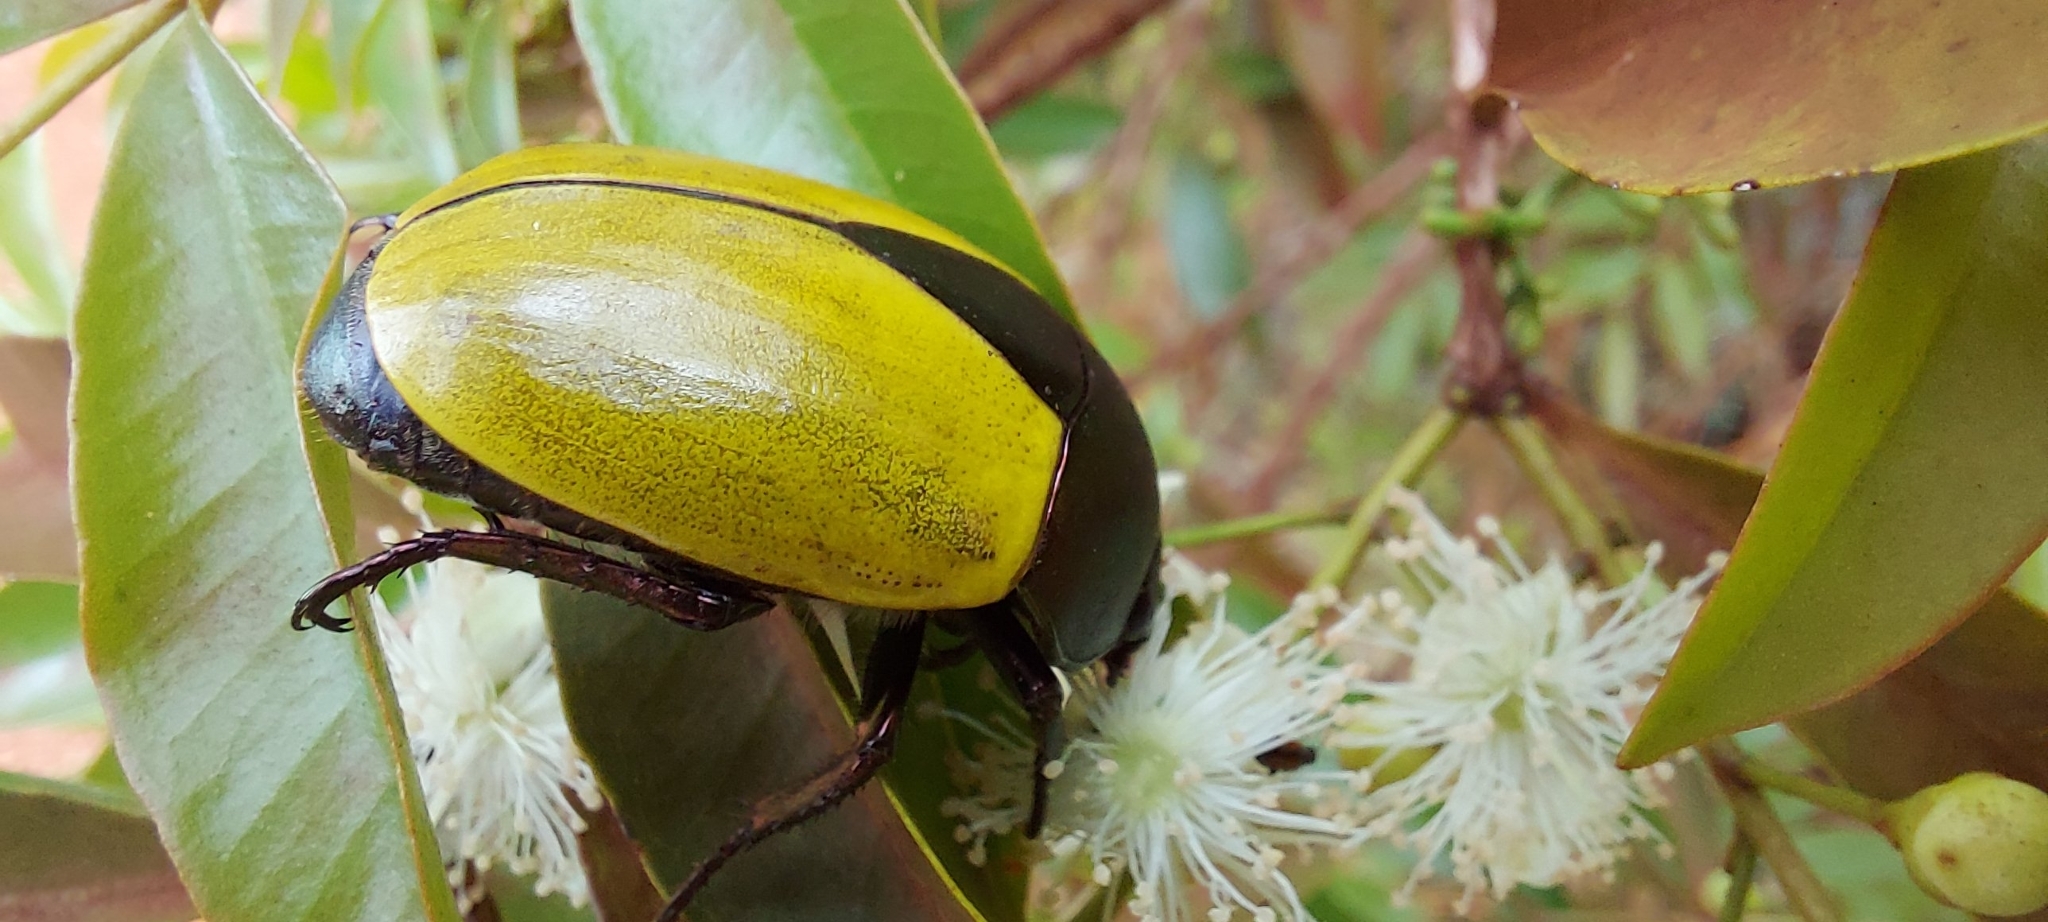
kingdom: Animalia
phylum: Arthropoda
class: Insecta
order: Coleoptera
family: Scarabaeidae
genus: Macraspis
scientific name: Macraspis clavata
